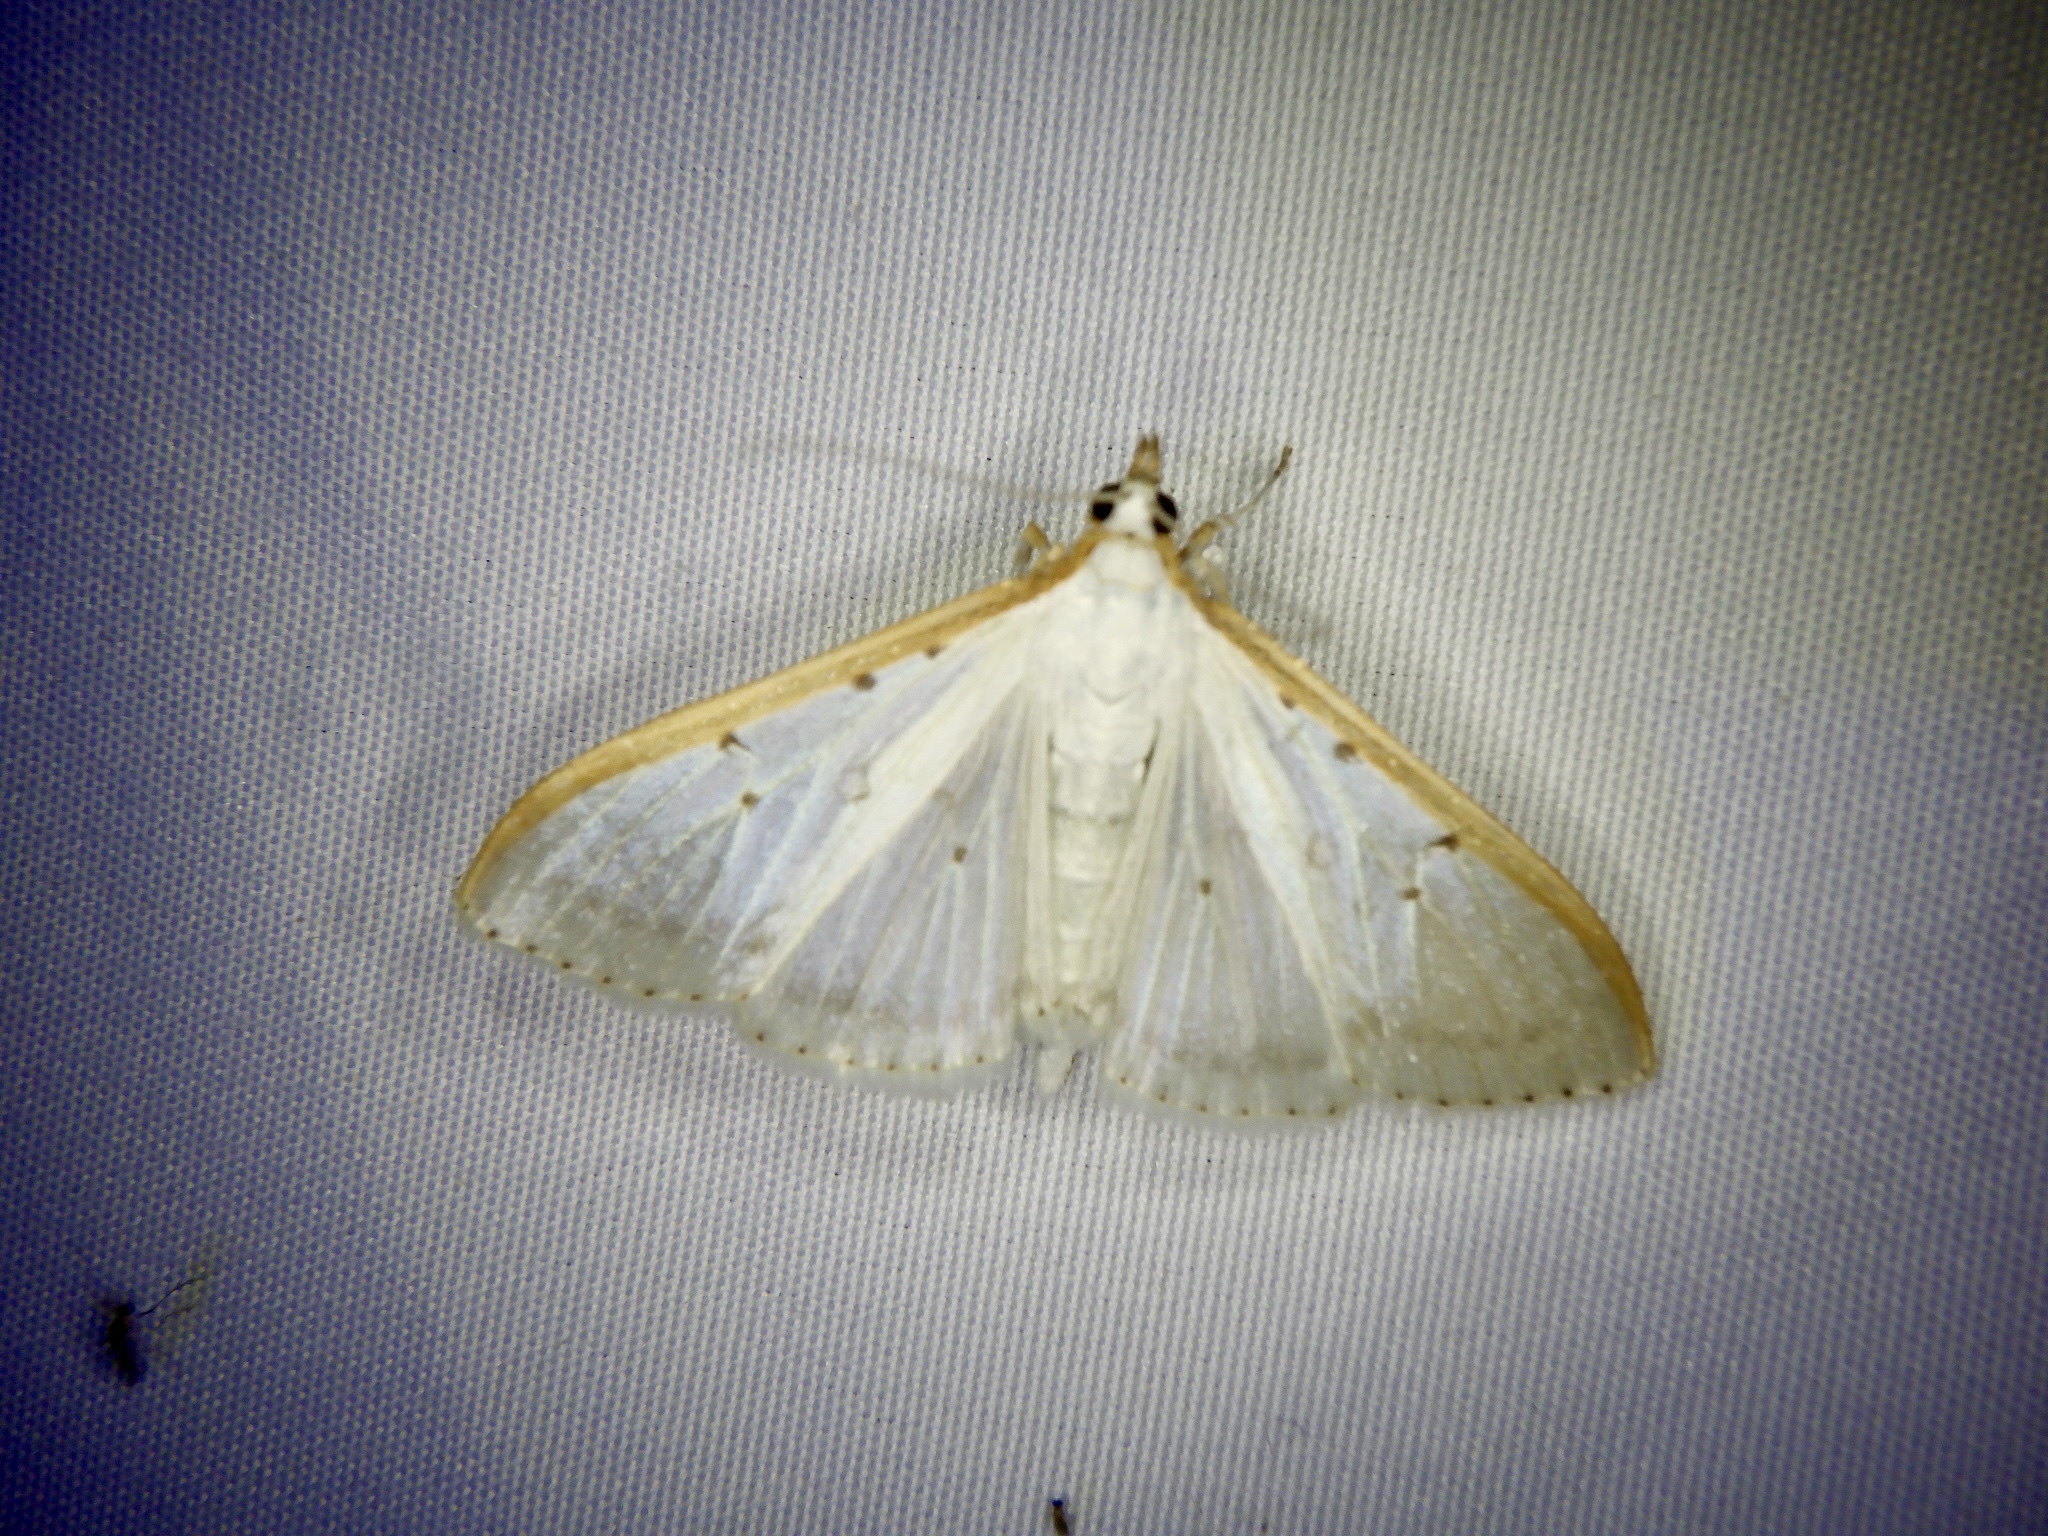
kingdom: Animalia
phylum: Arthropoda
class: Insecta
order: Lepidoptera
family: Crambidae
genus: Palpita
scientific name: Palpita nigropunctalis
